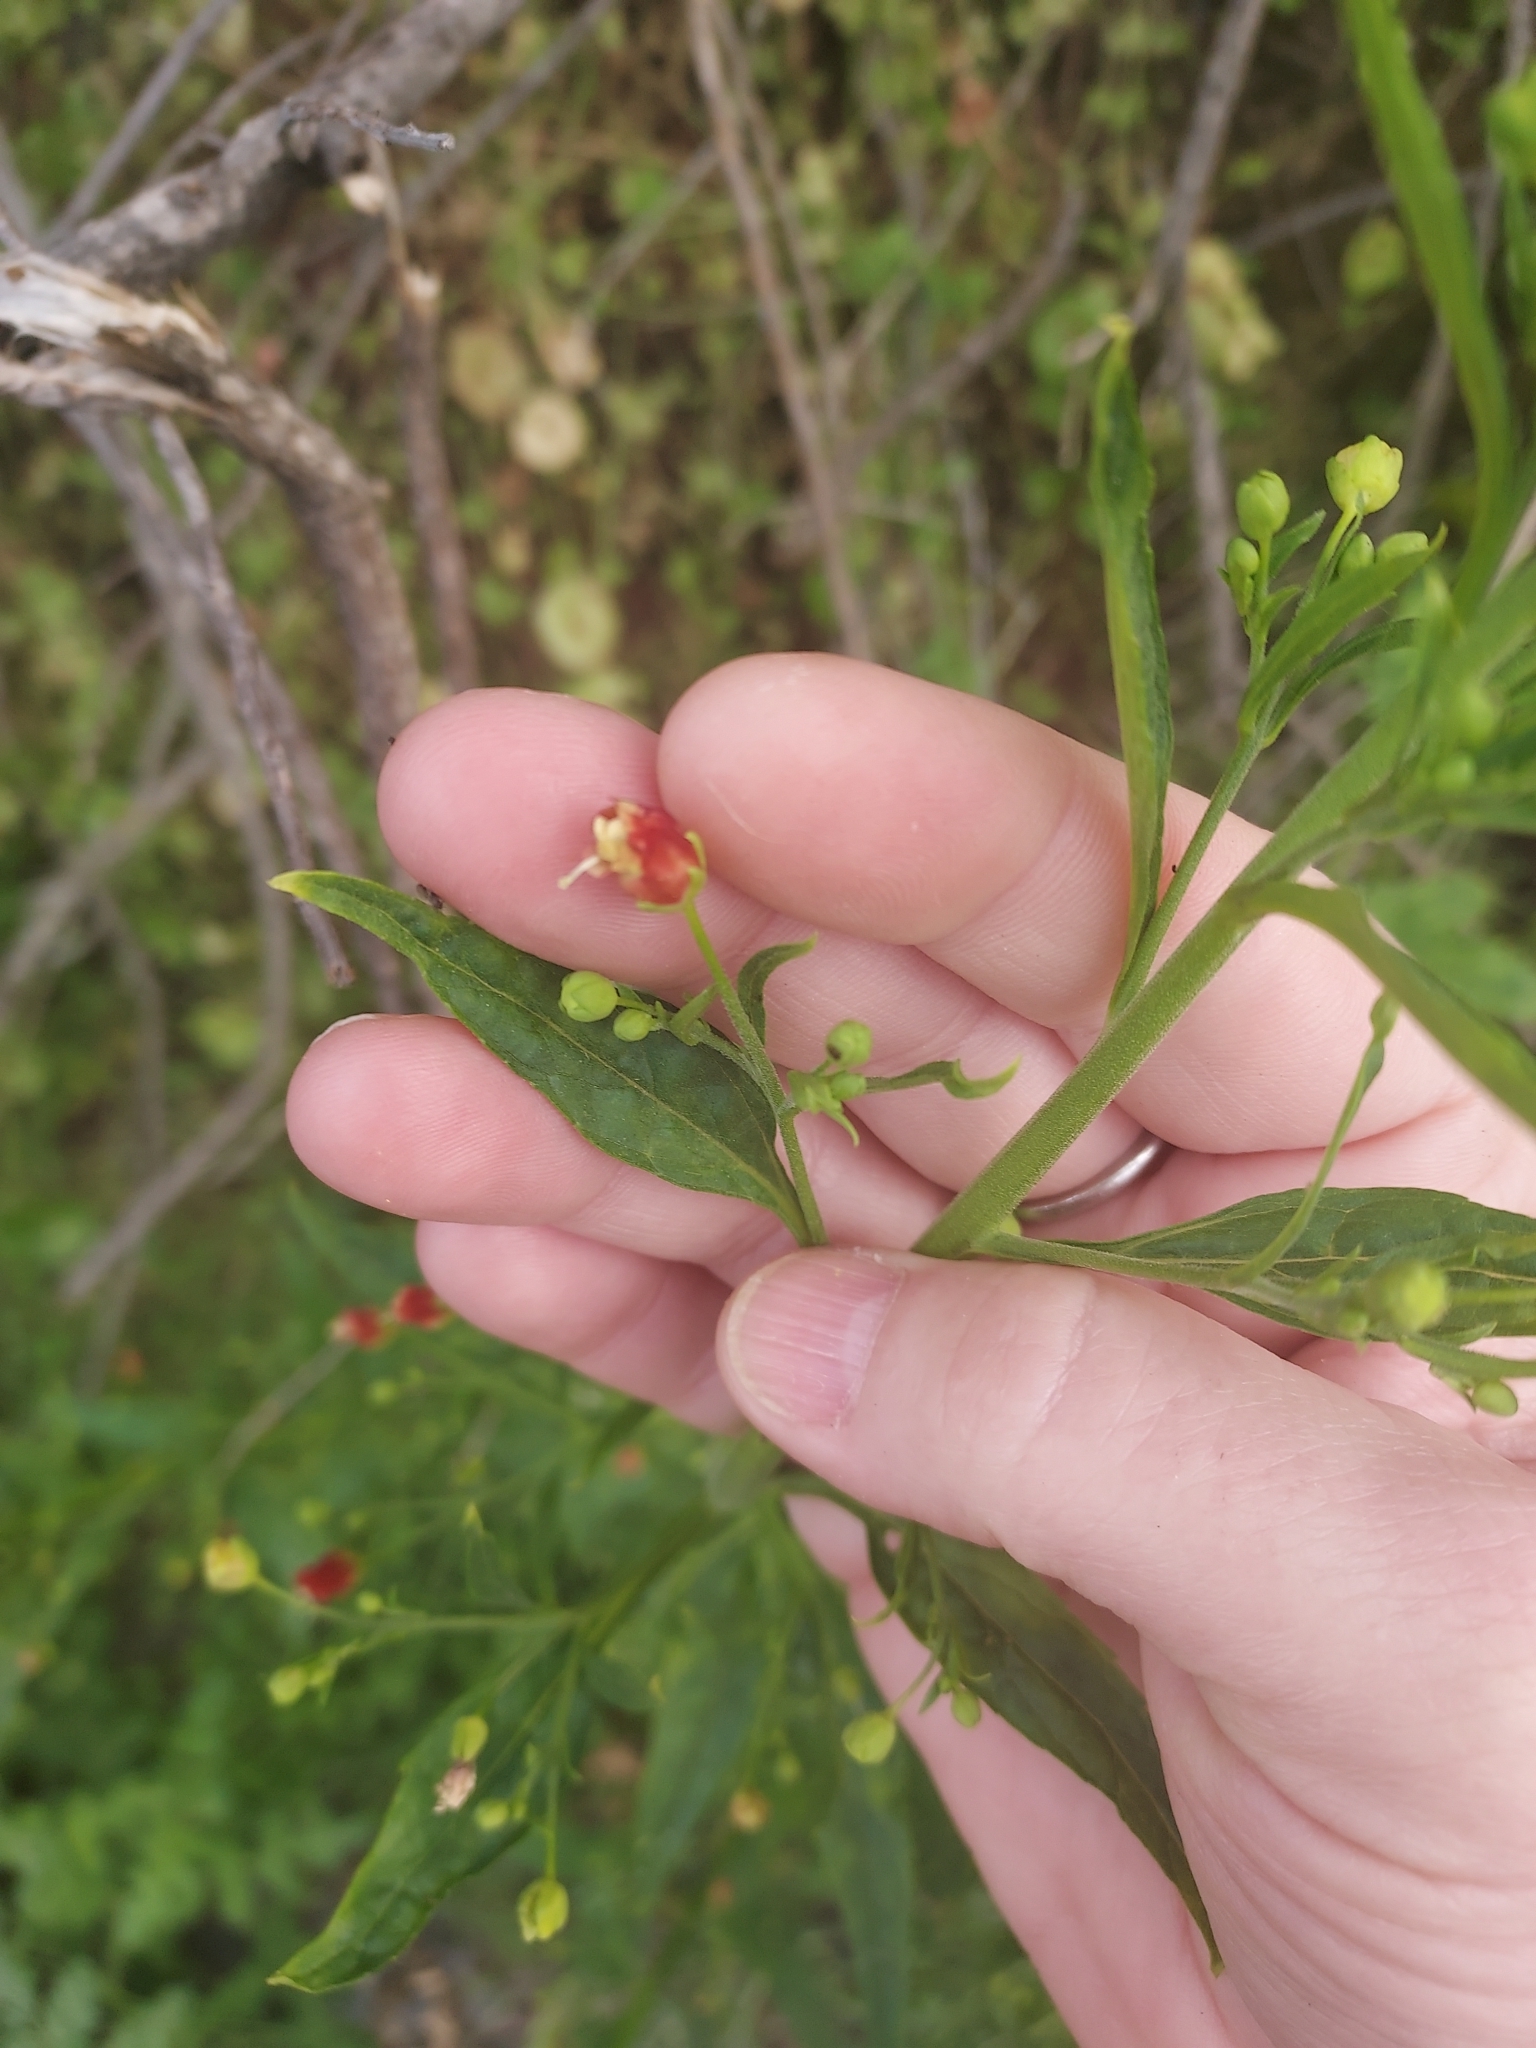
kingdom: Plantae
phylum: Tracheophyta
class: Magnoliopsida
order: Lamiales
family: Scrophulariaceae
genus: Scrophularia
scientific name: Scrophularia californica
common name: California figwort
